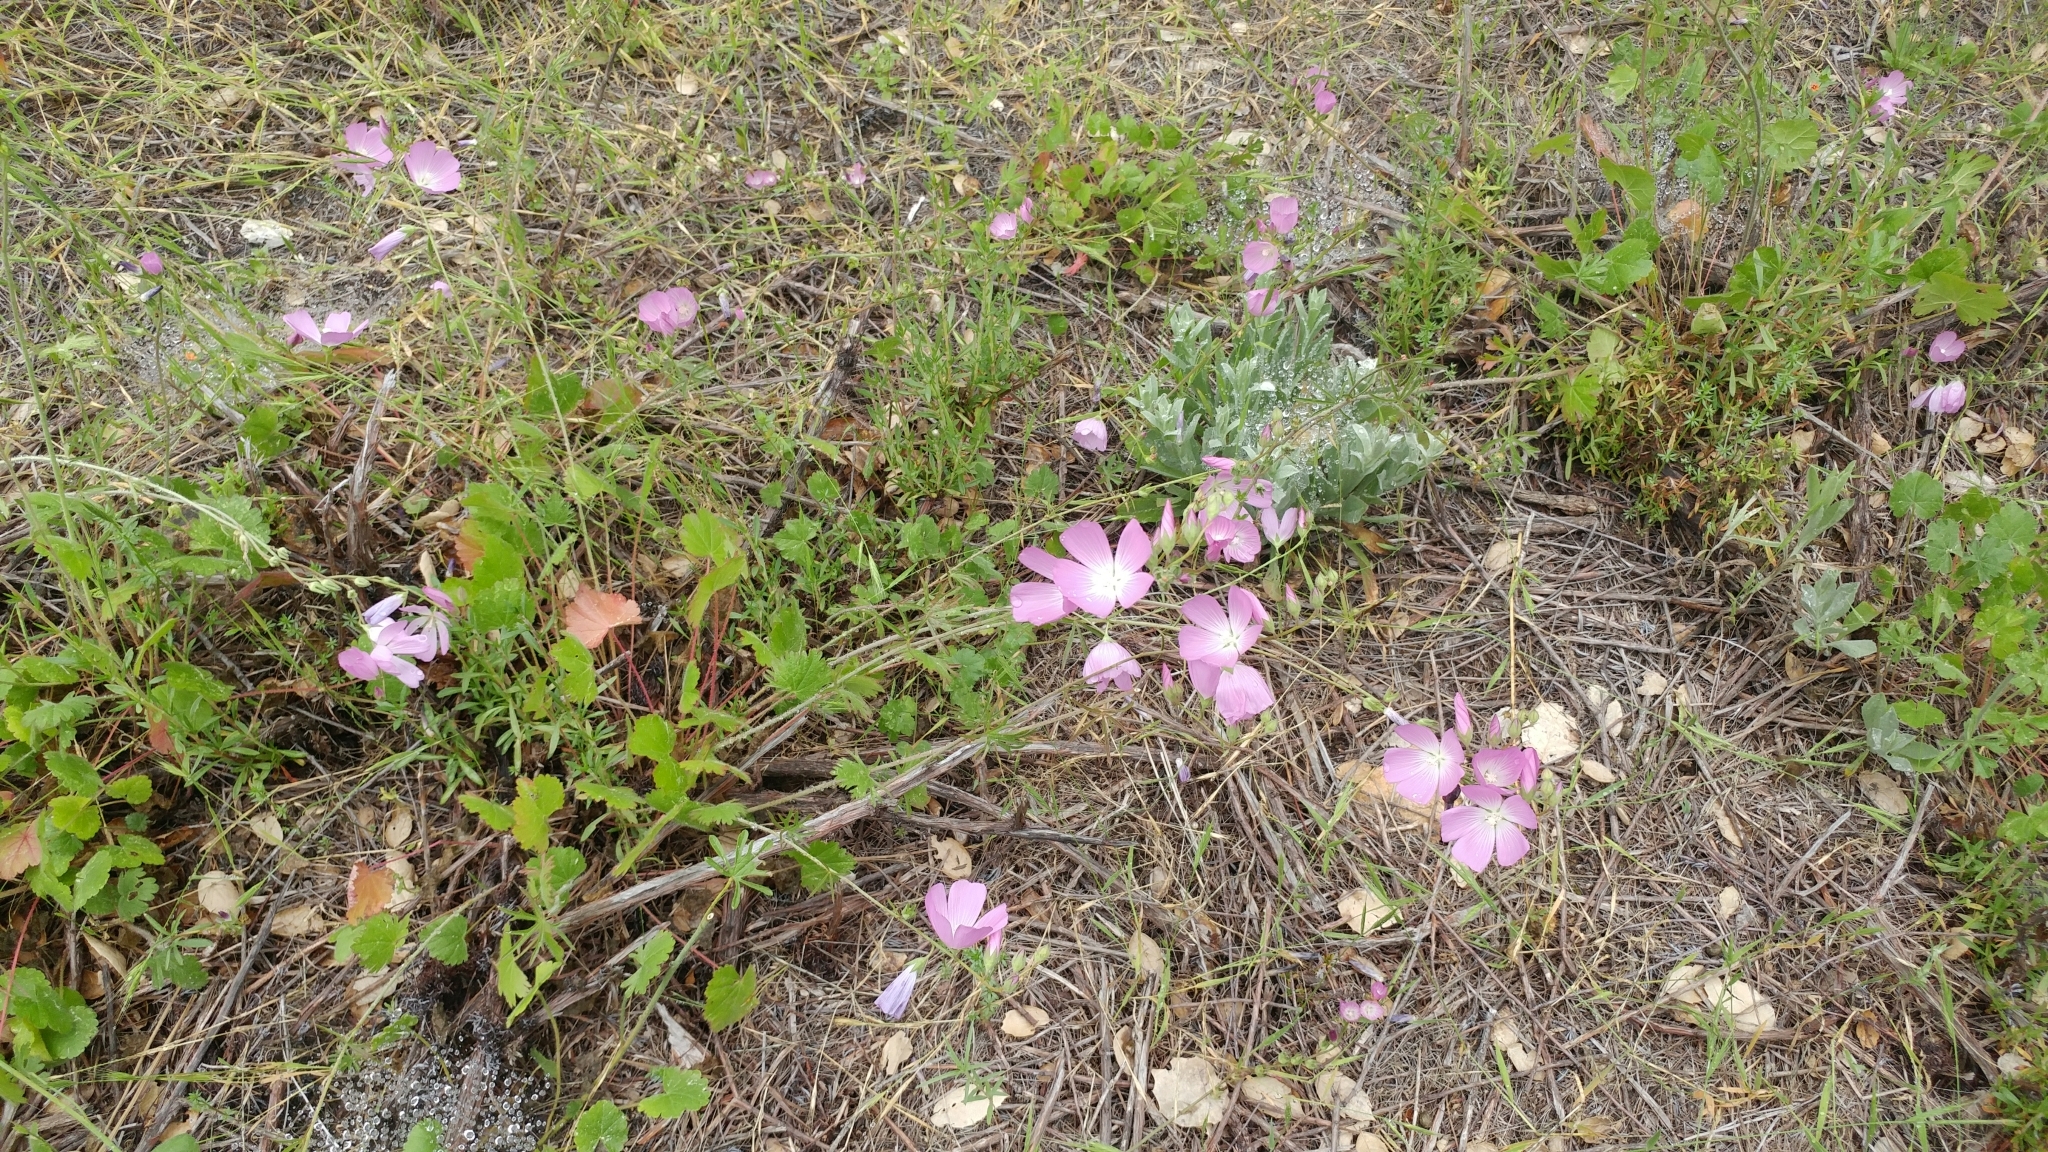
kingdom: Plantae
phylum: Tracheophyta
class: Magnoliopsida
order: Malvales
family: Malvaceae
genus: Sidalcea
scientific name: Sidalcea sparsifolia
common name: Southern checkerbloom
